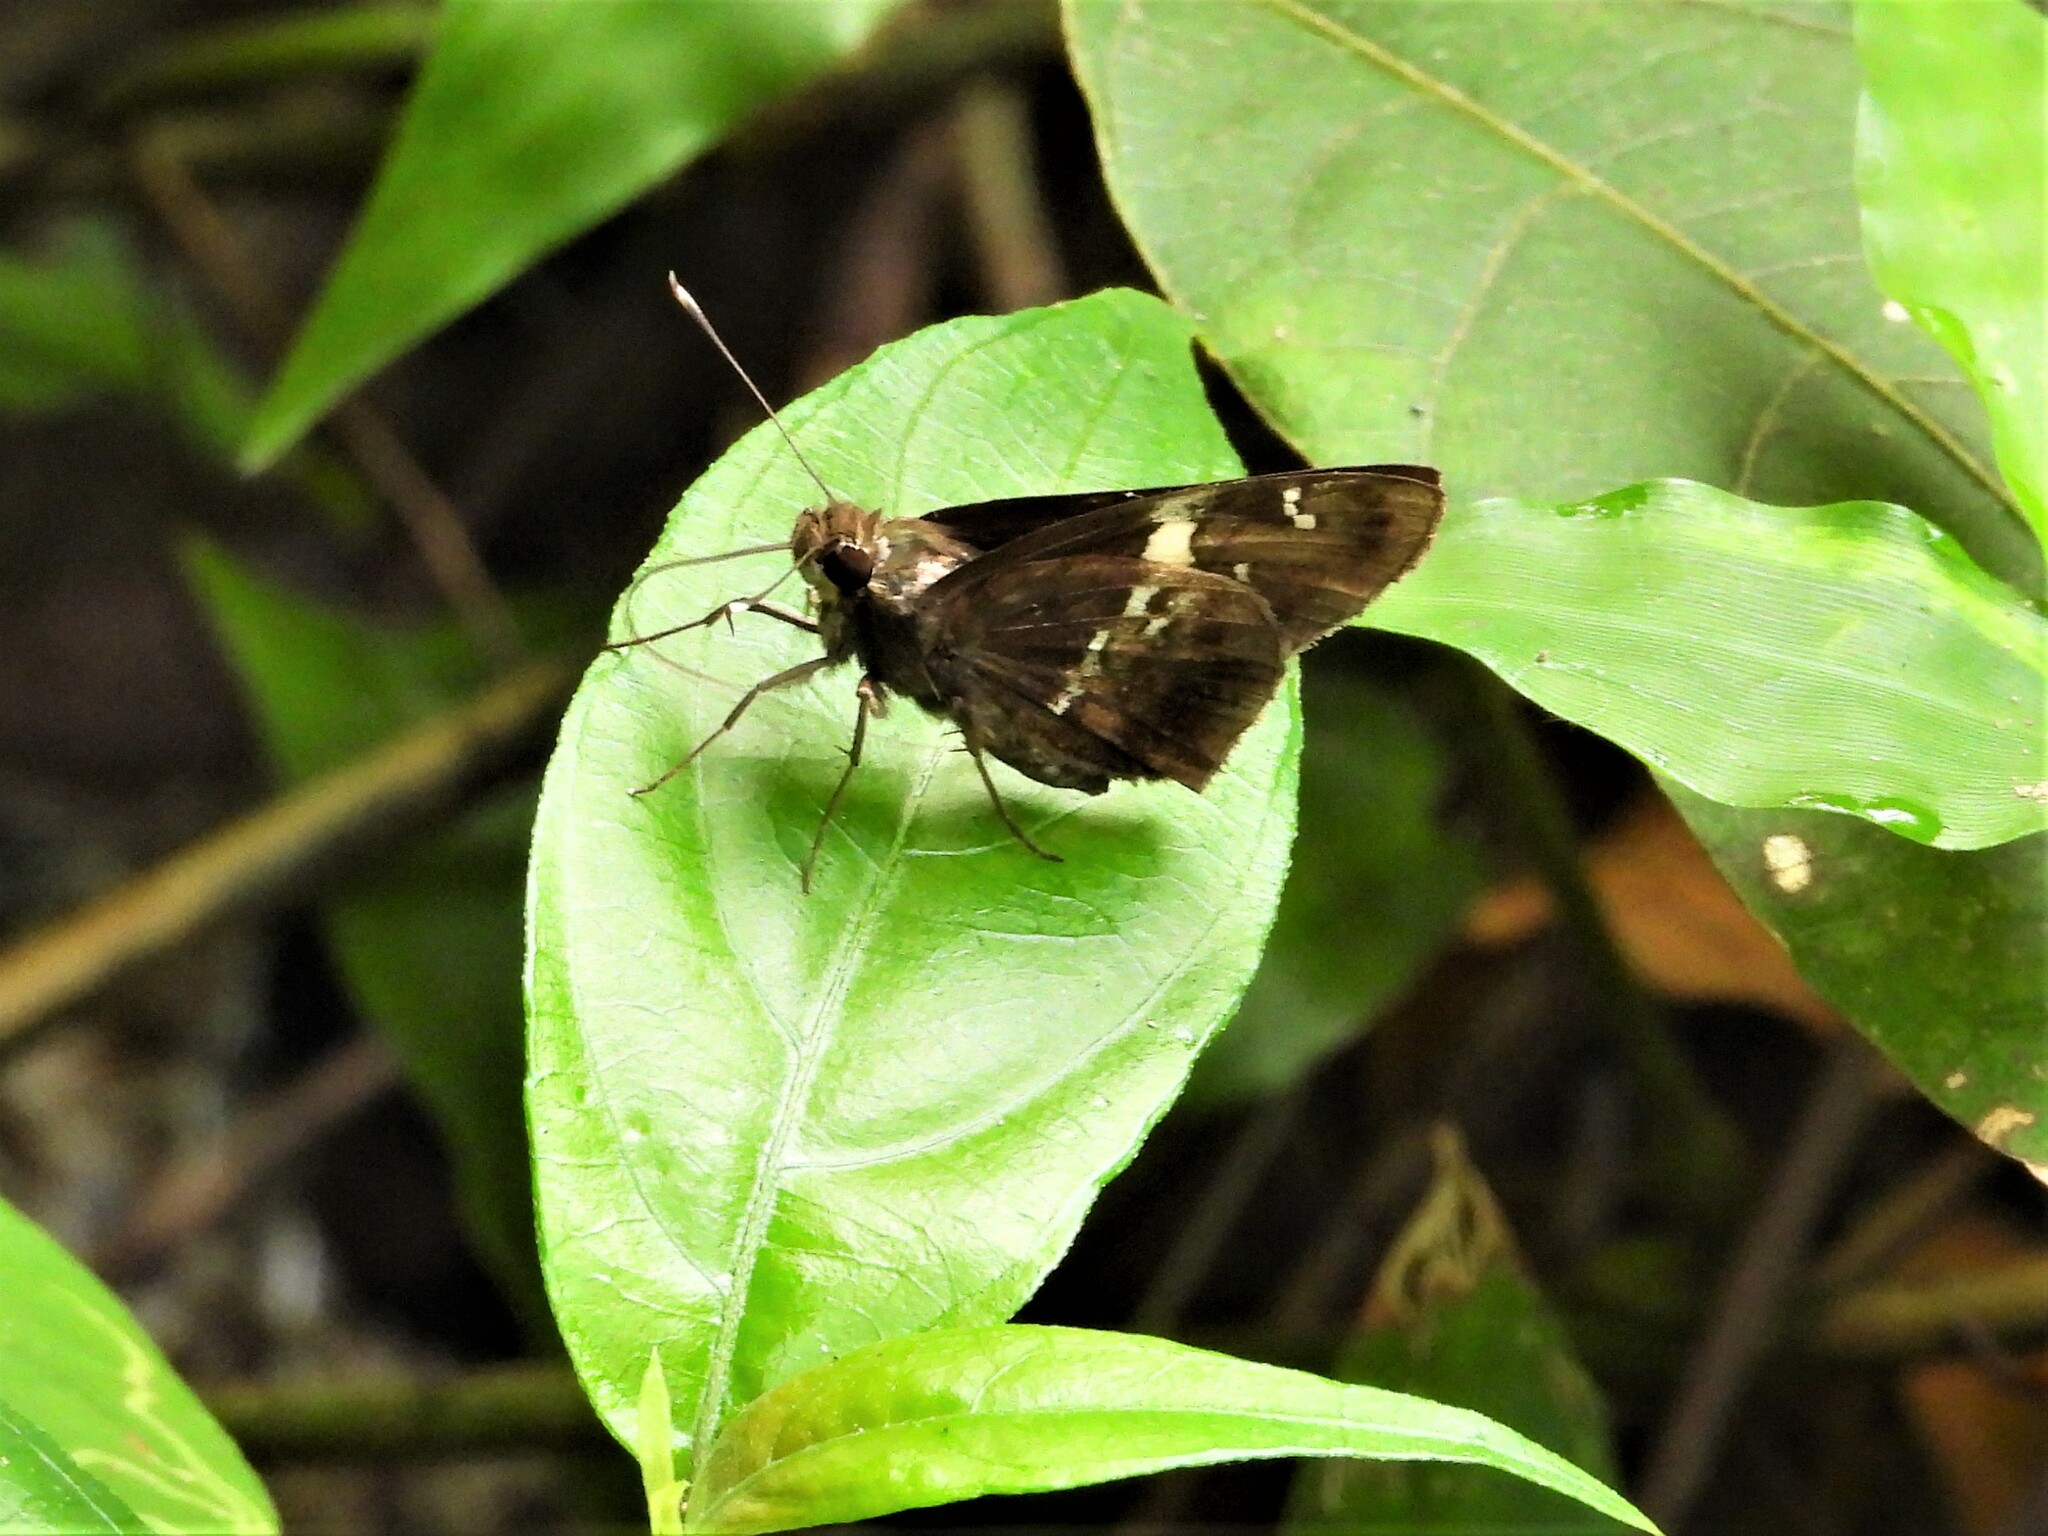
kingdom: Animalia
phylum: Arthropoda
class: Insecta
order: Lepidoptera
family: Hesperiidae
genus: Hyarotis
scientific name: Hyarotis adrastus
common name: Tree flitter
